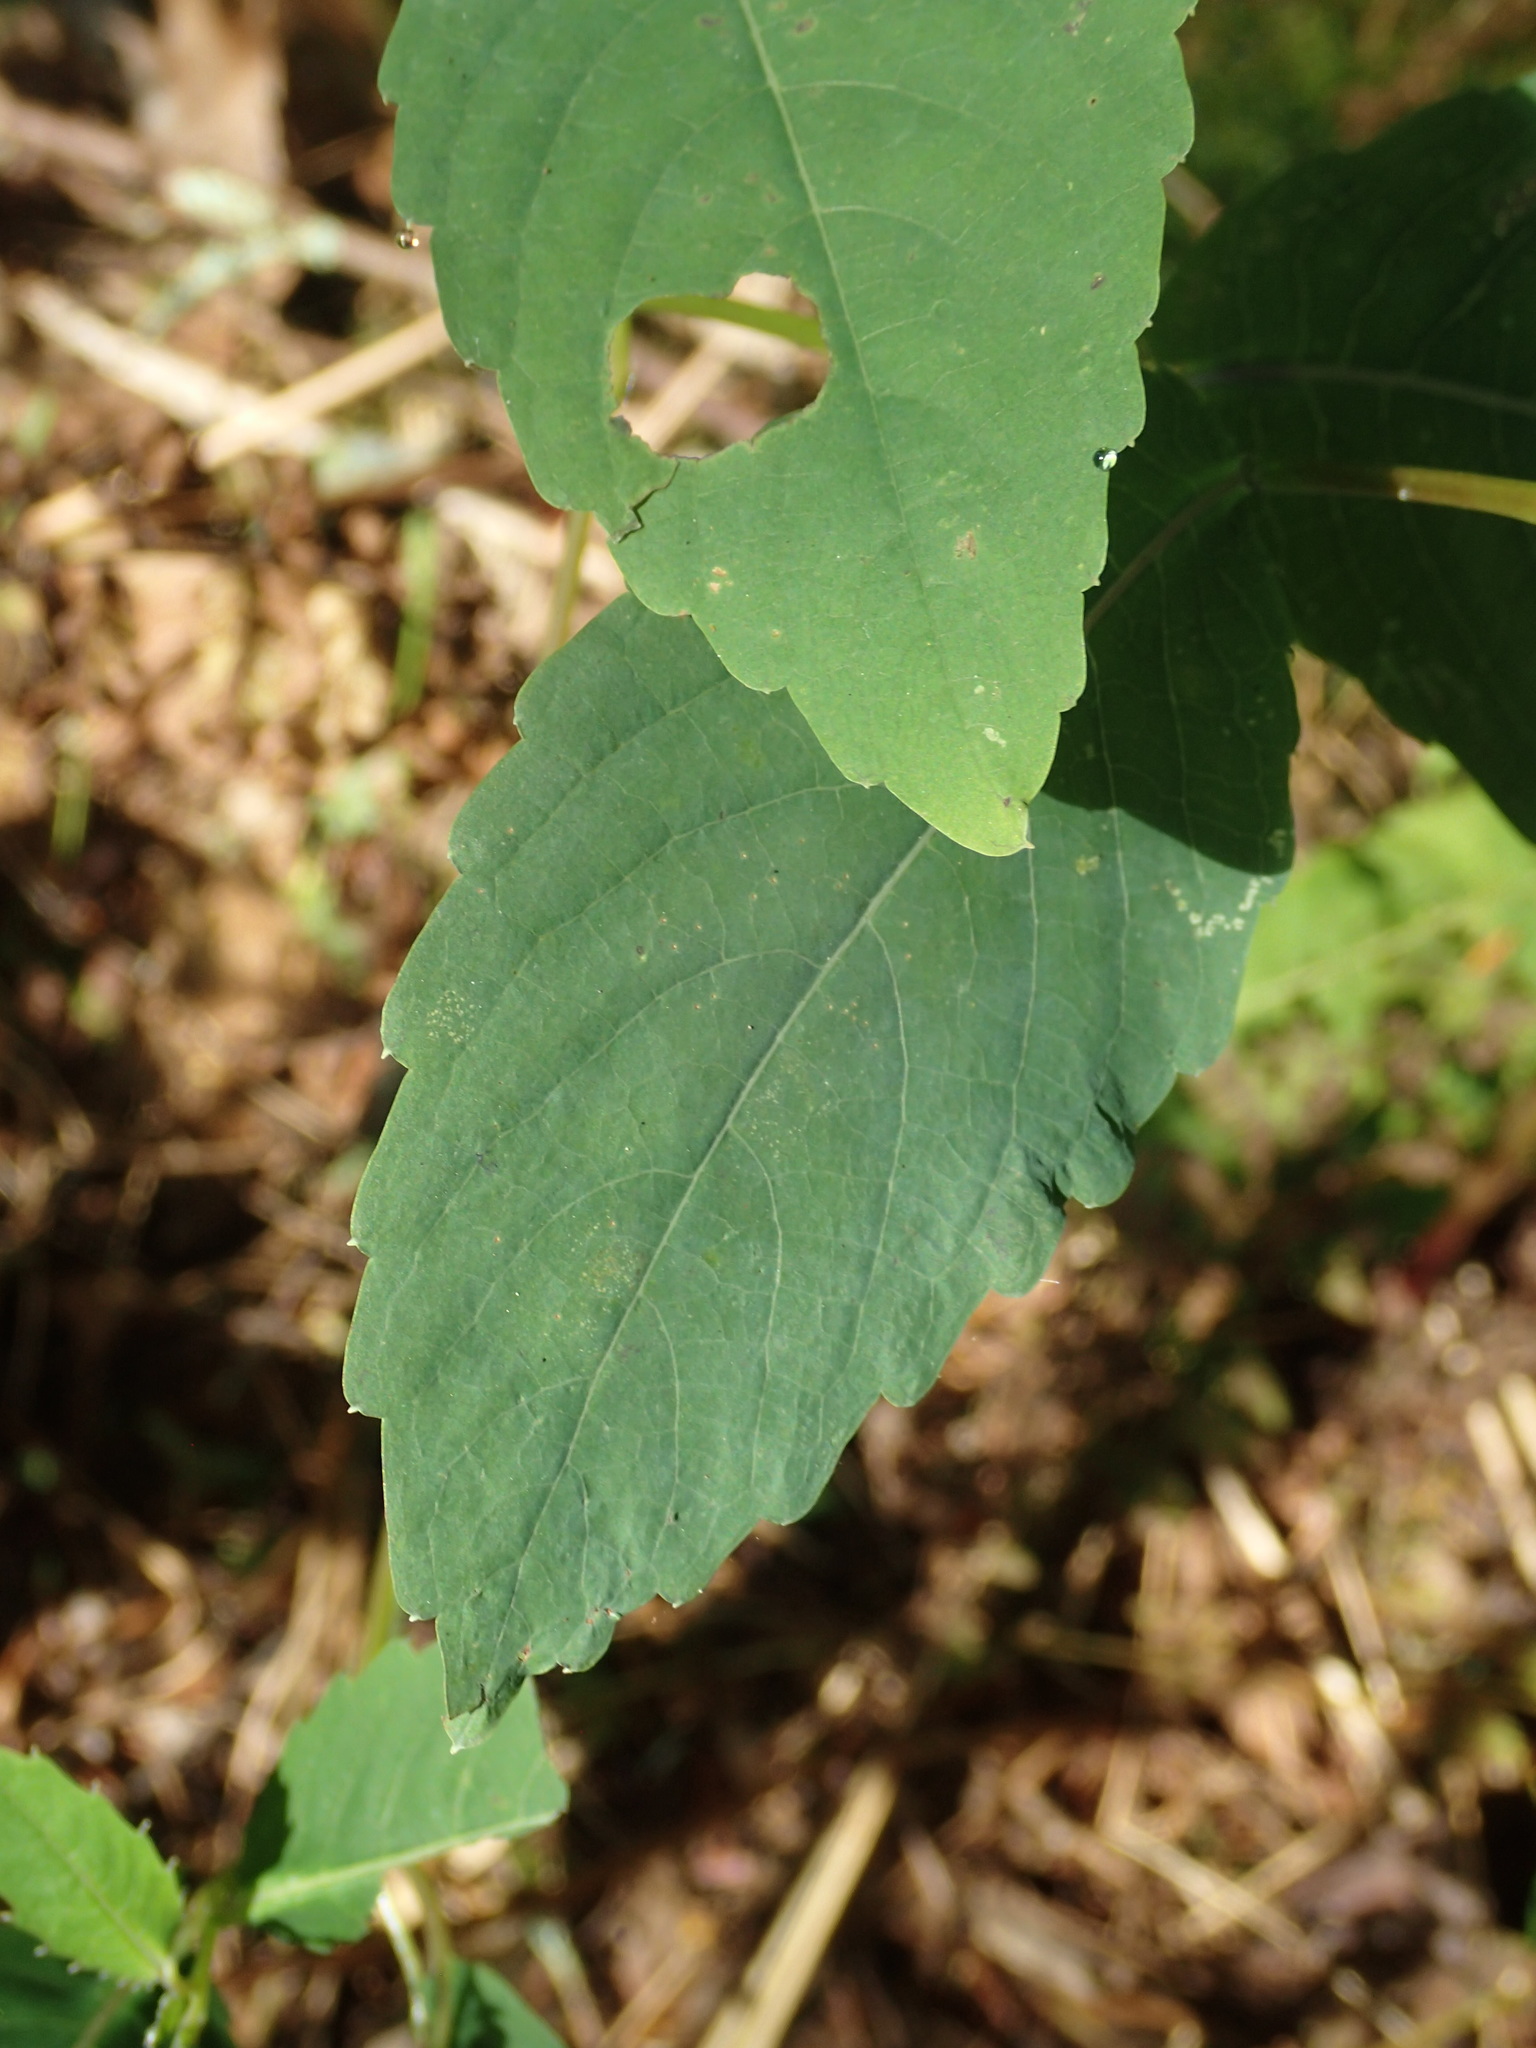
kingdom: Plantae
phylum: Tracheophyta
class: Magnoliopsida
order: Ericales
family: Balsaminaceae
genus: Impatiens
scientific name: Impatiens pallida
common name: Pale snapweed
